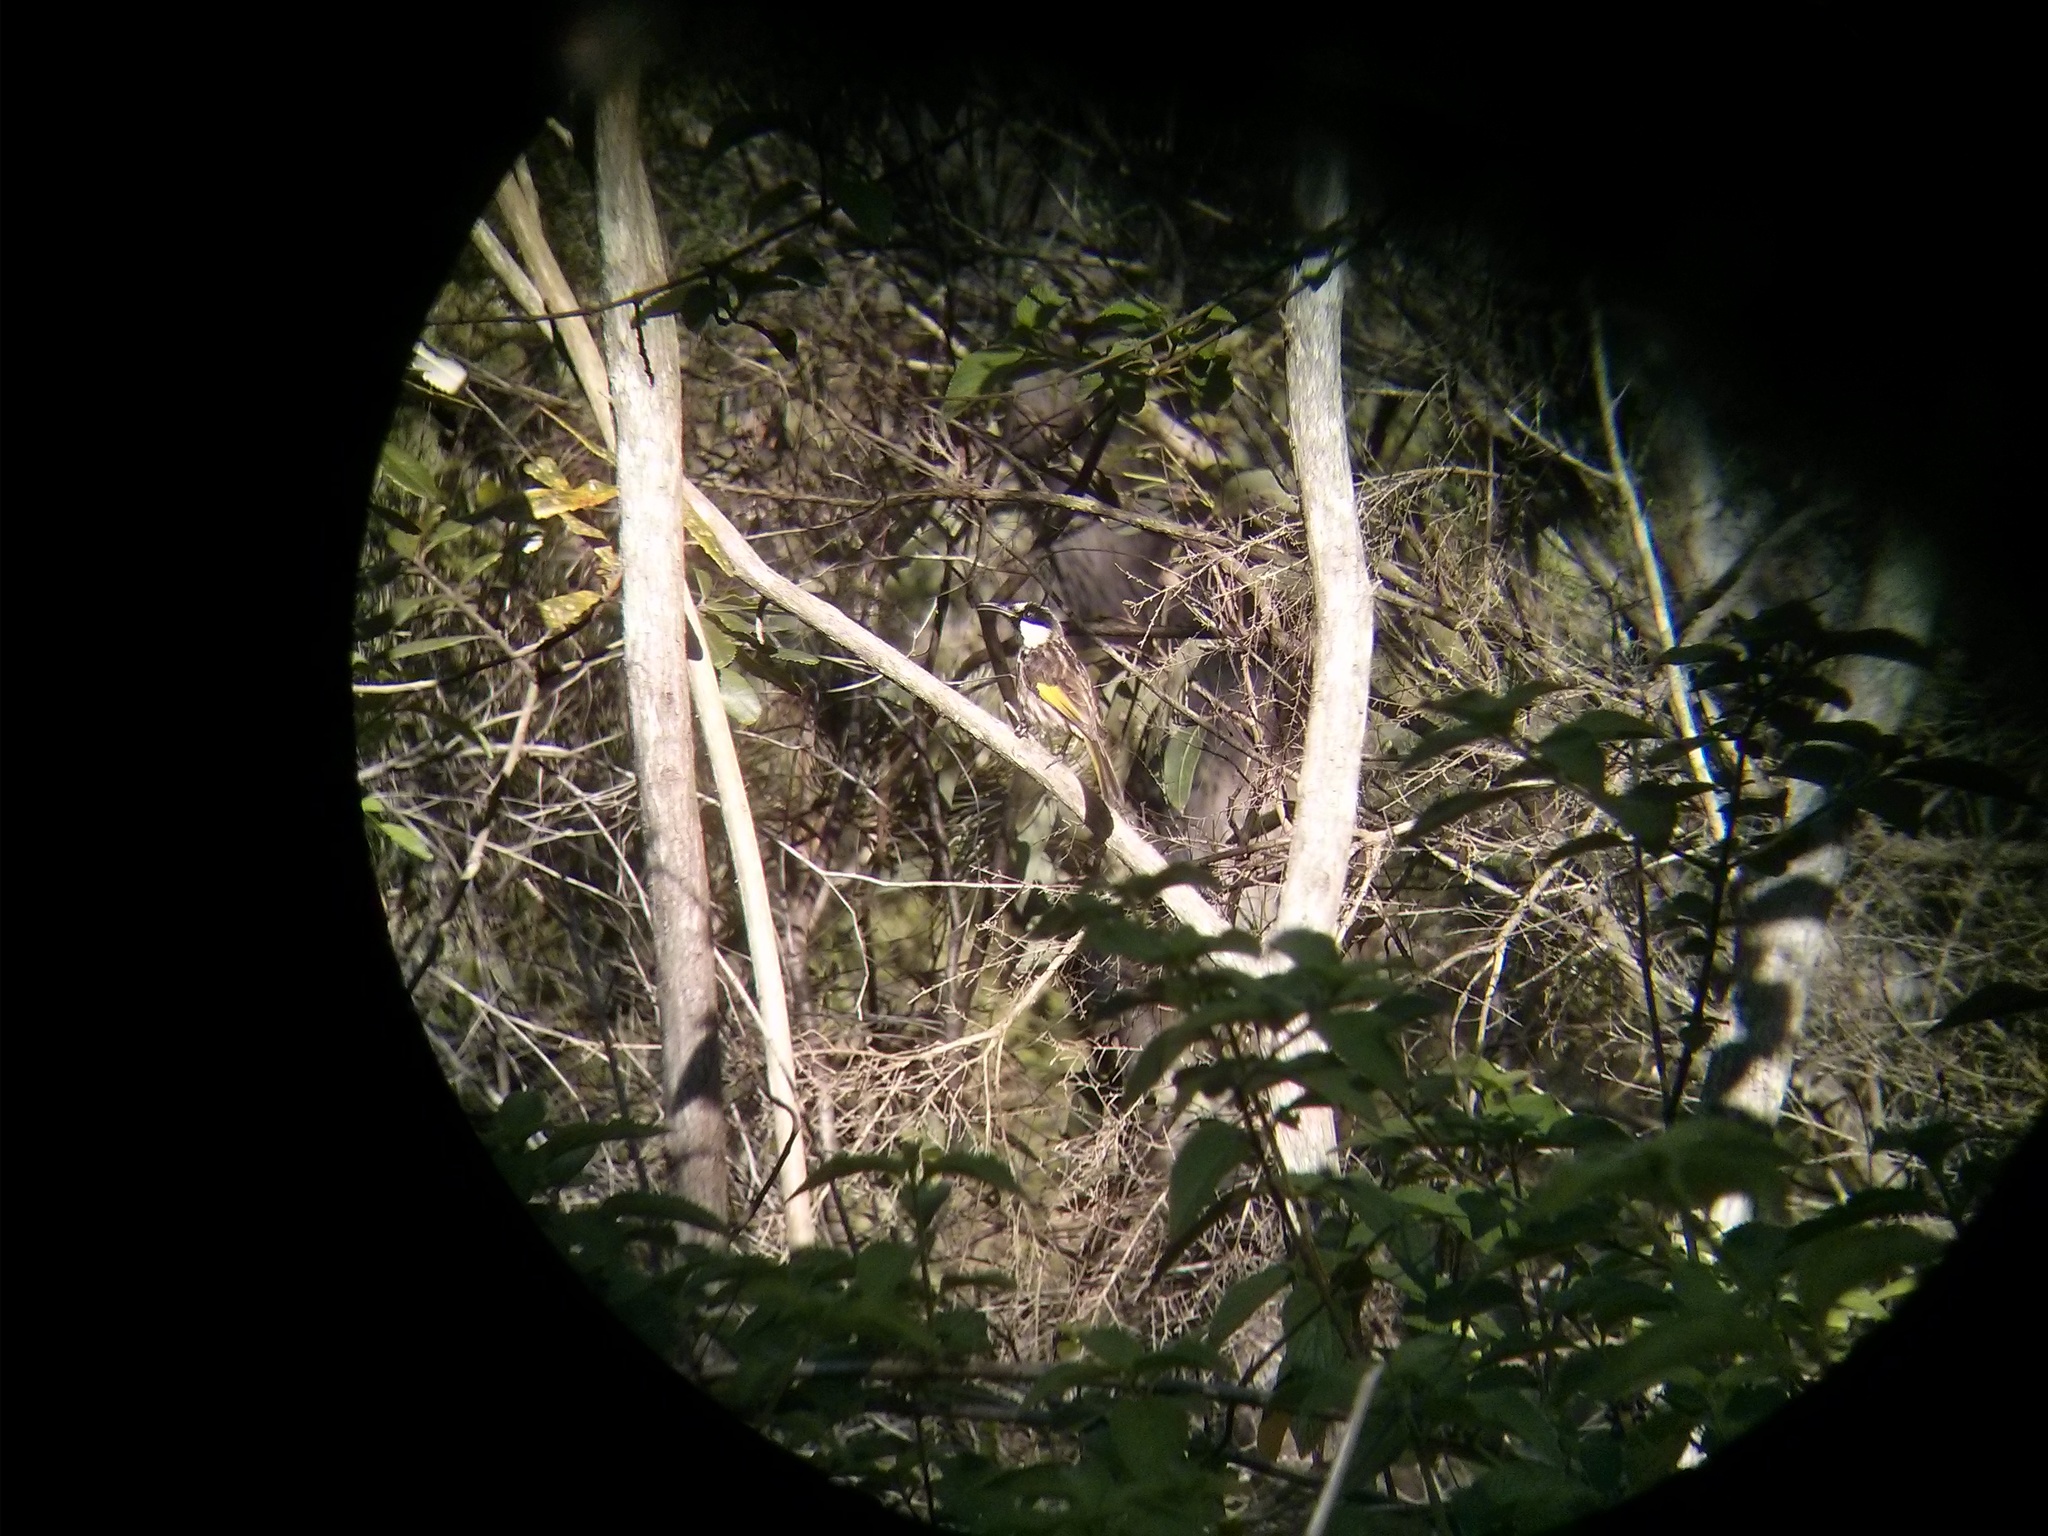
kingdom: Animalia
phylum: Chordata
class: Aves
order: Passeriformes
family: Meliphagidae
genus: Phylidonyris
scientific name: Phylidonyris niger
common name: White-cheeked honeyeater
